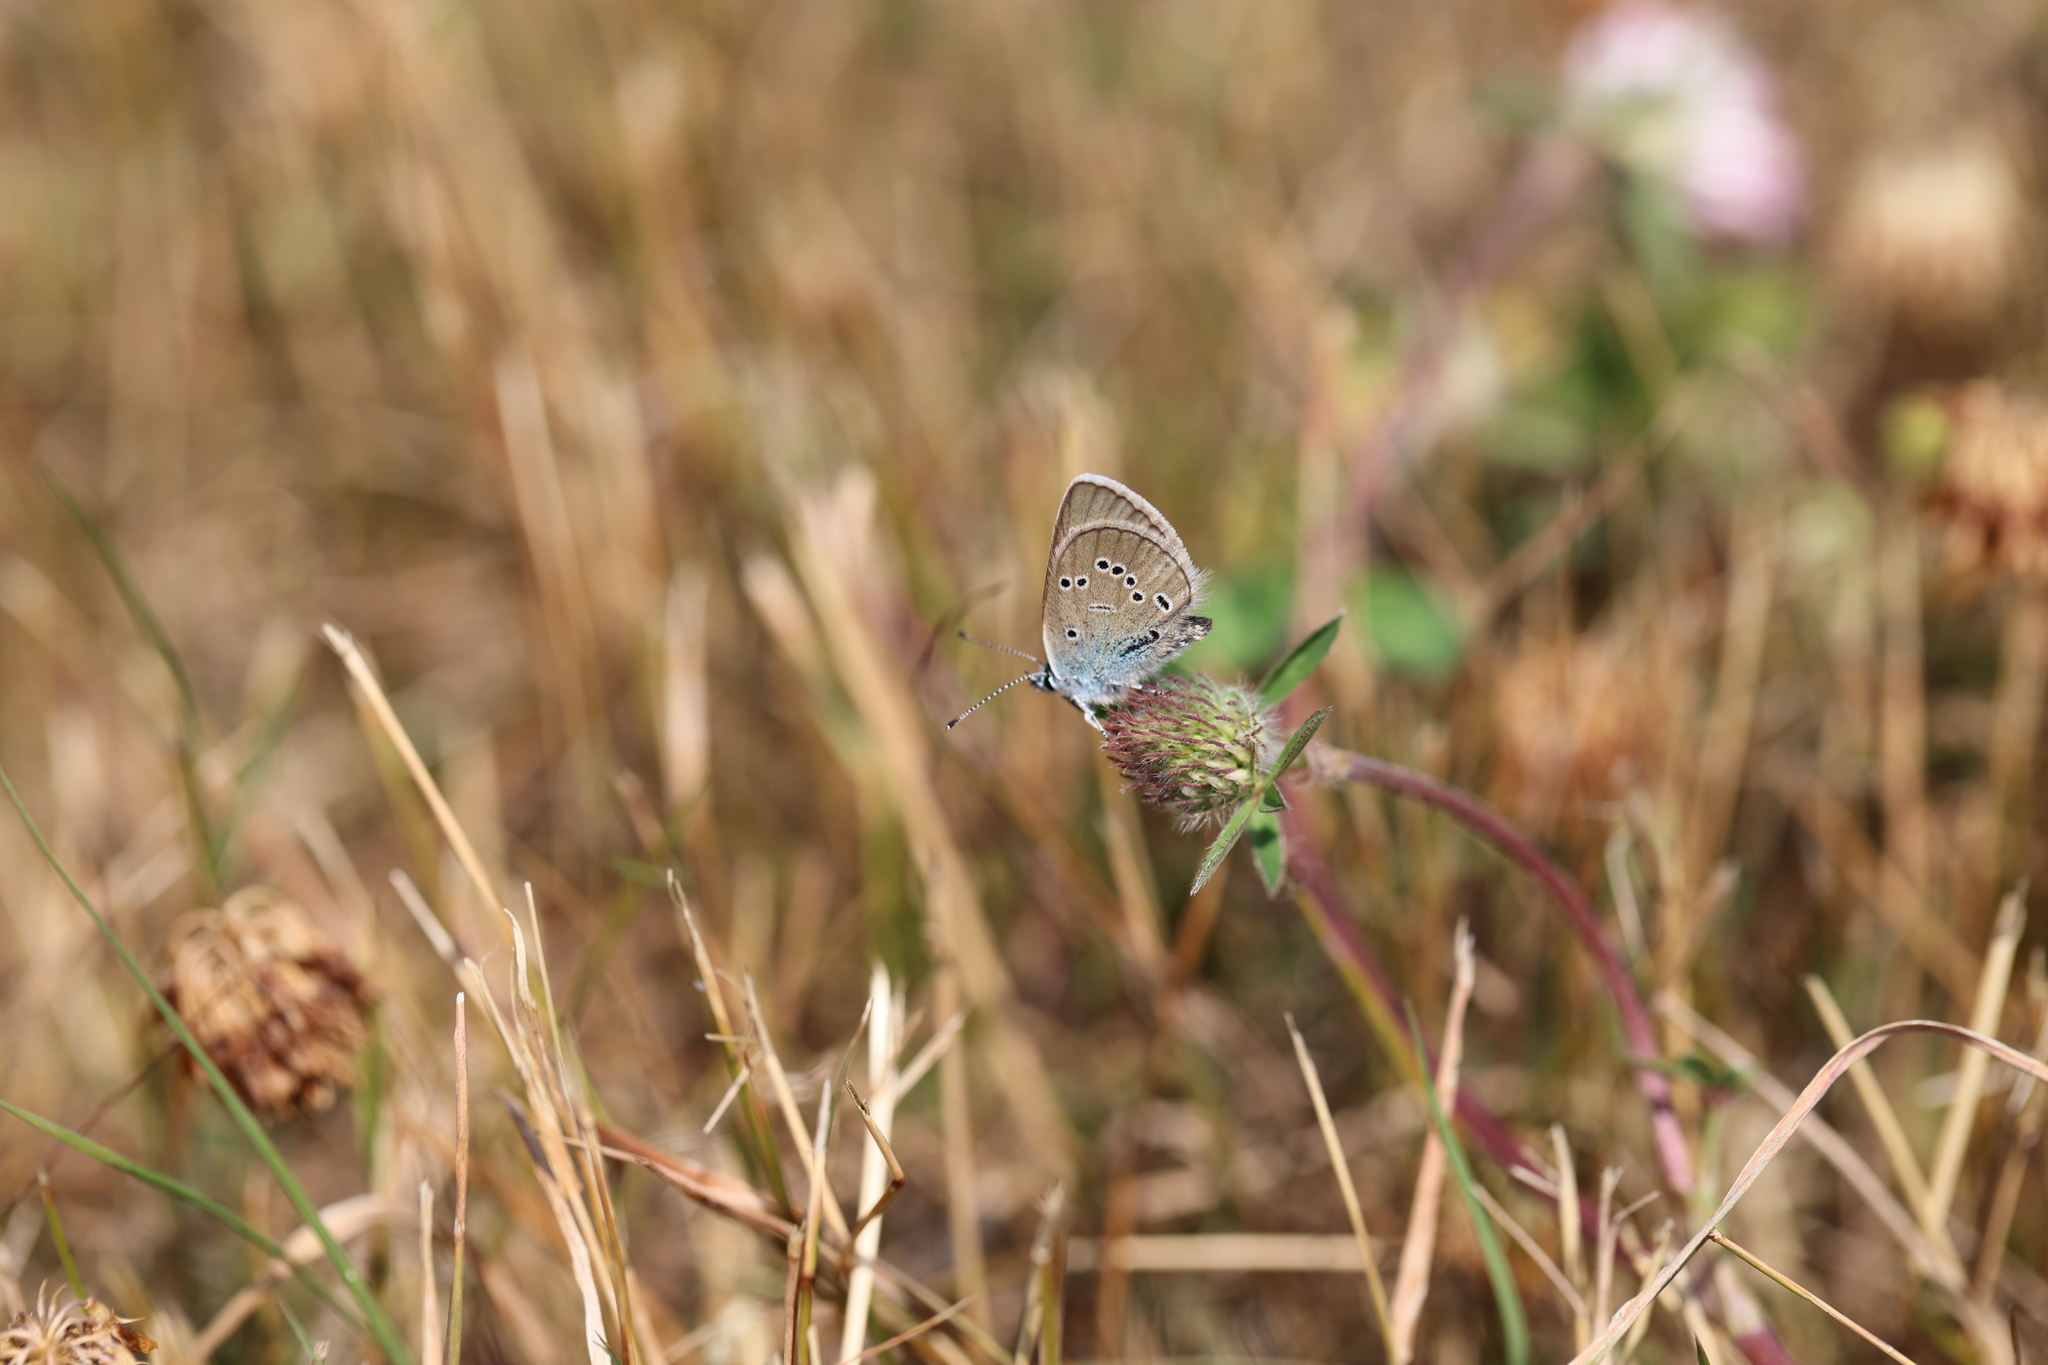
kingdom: Animalia
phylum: Arthropoda
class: Insecta
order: Lepidoptera
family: Lycaenidae
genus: Cyaniris
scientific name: Cyaniris semiargus
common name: Mazarine blue
